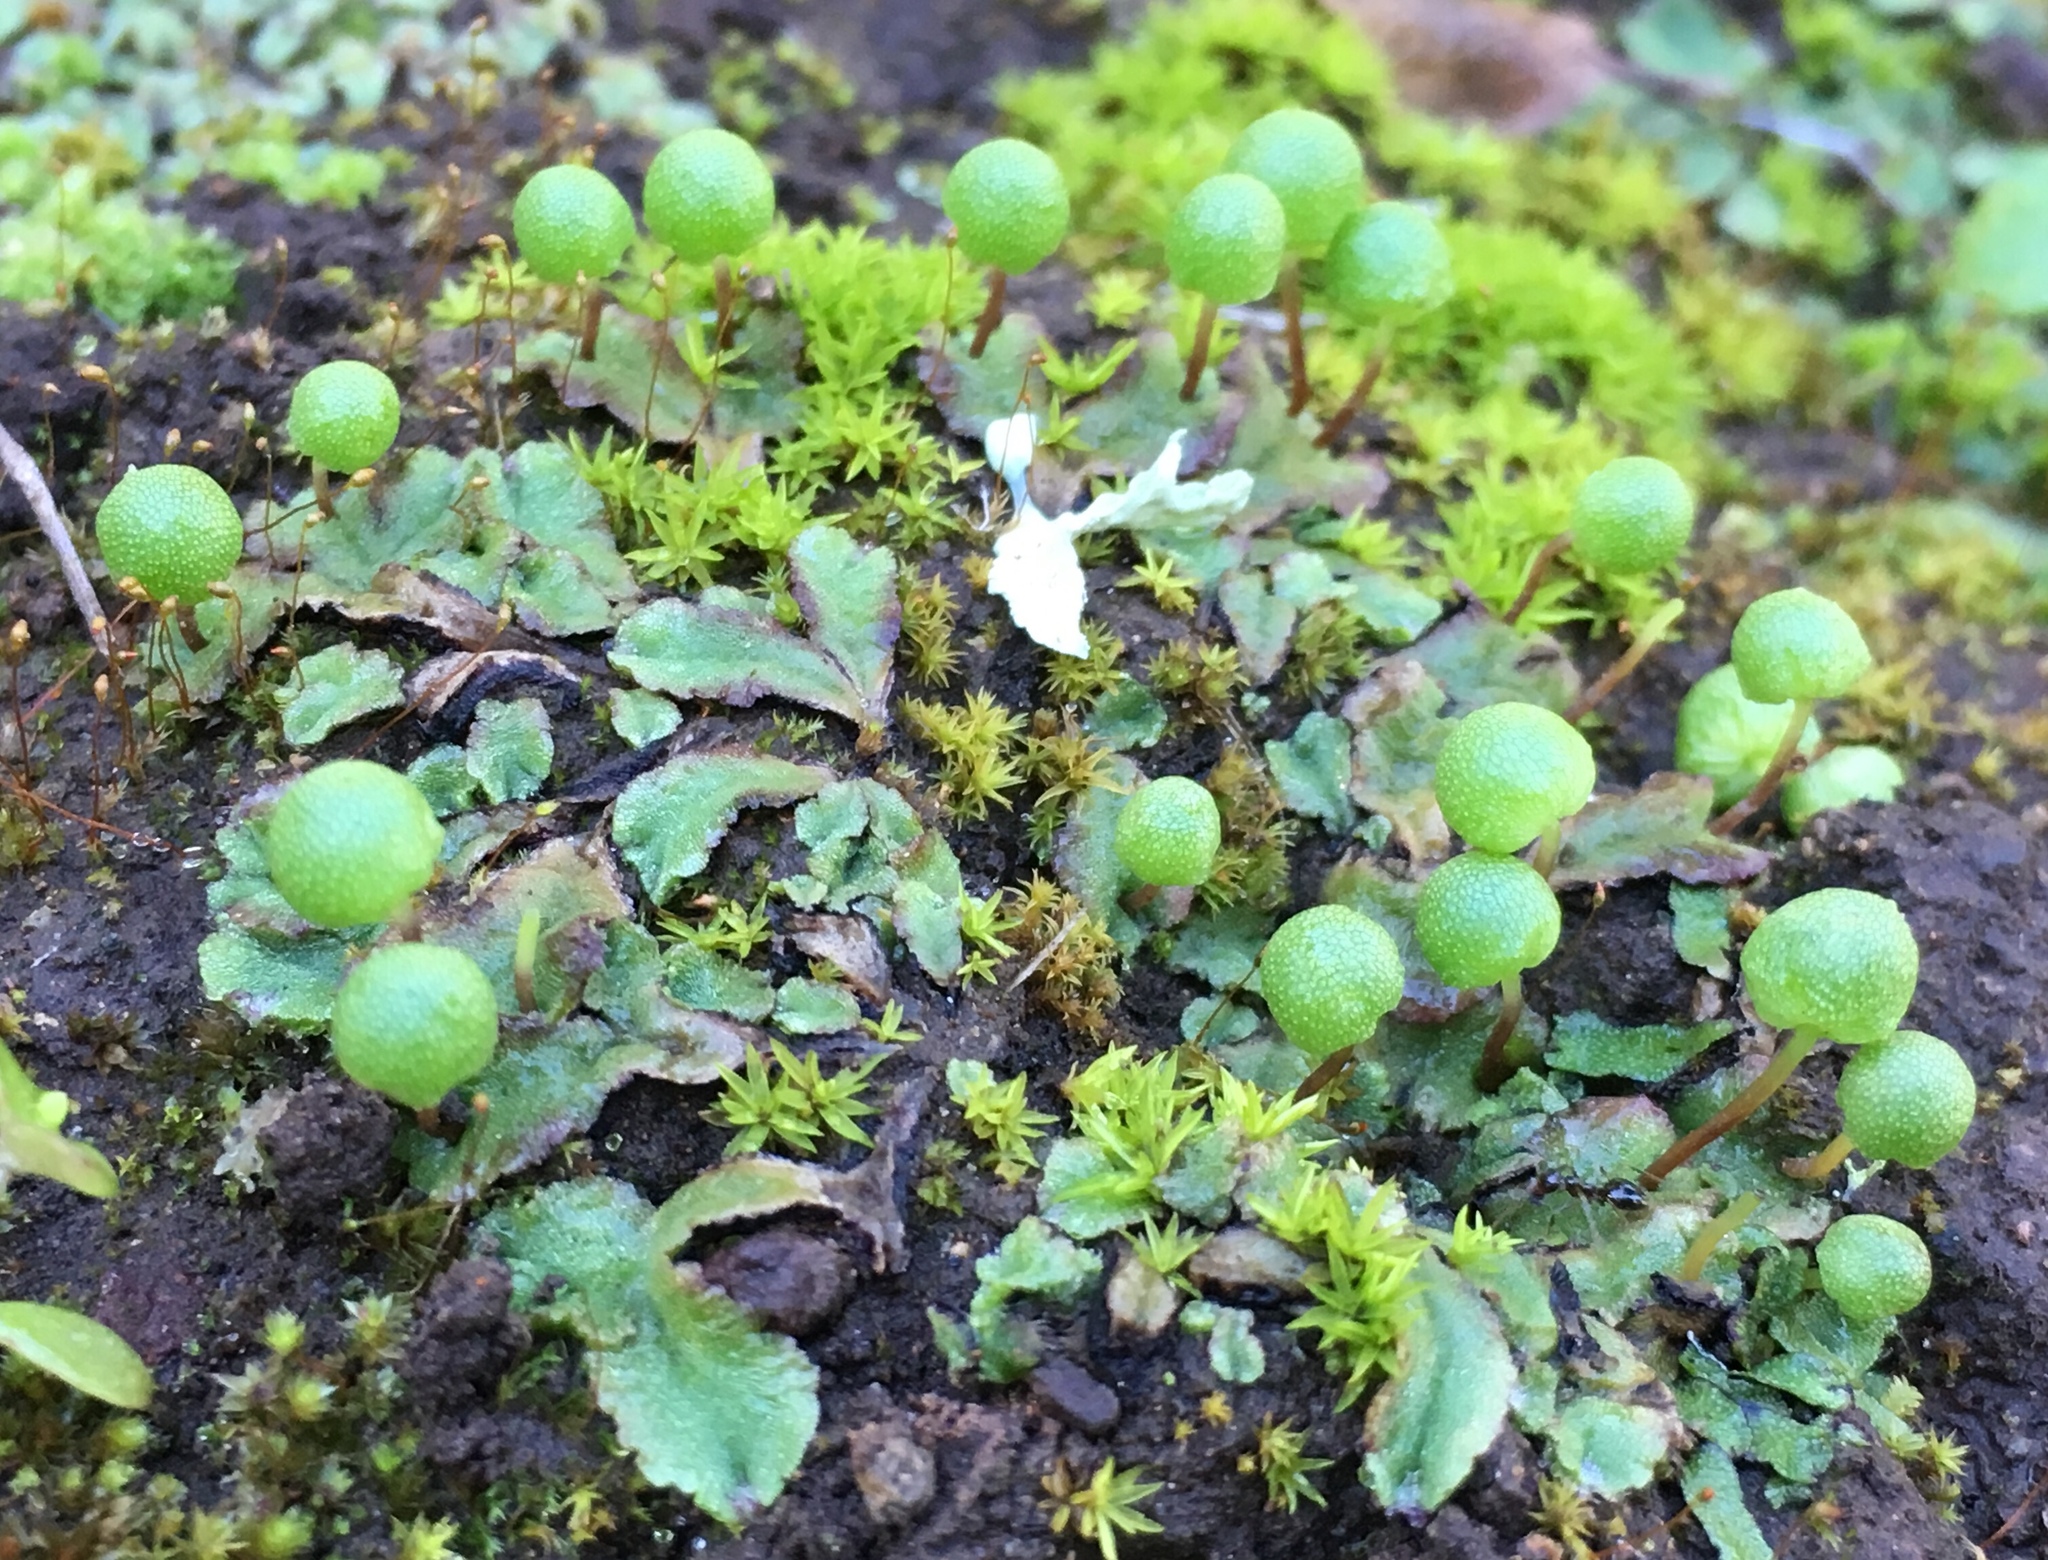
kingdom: Plantae
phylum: Marchantiophyta
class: Marchantiopsida
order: Marchantiales
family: Aytoniaceae
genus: Asterella
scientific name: Asterella palmeri
